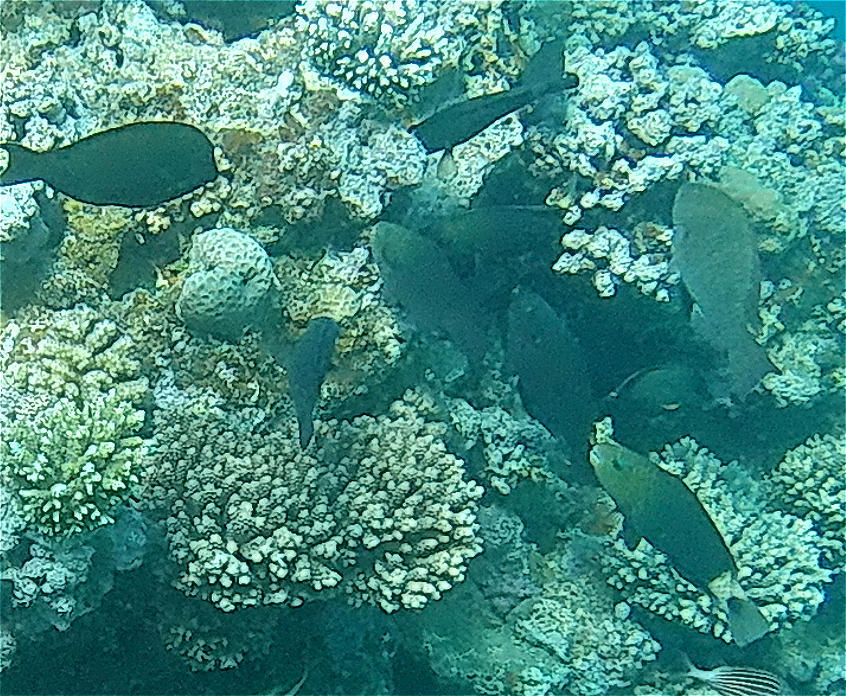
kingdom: Animalia
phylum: Chordata
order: Perciformes
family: Scaridae
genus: Chlorurus
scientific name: Chlorurus sordidus
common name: Bullethead parrotfish
